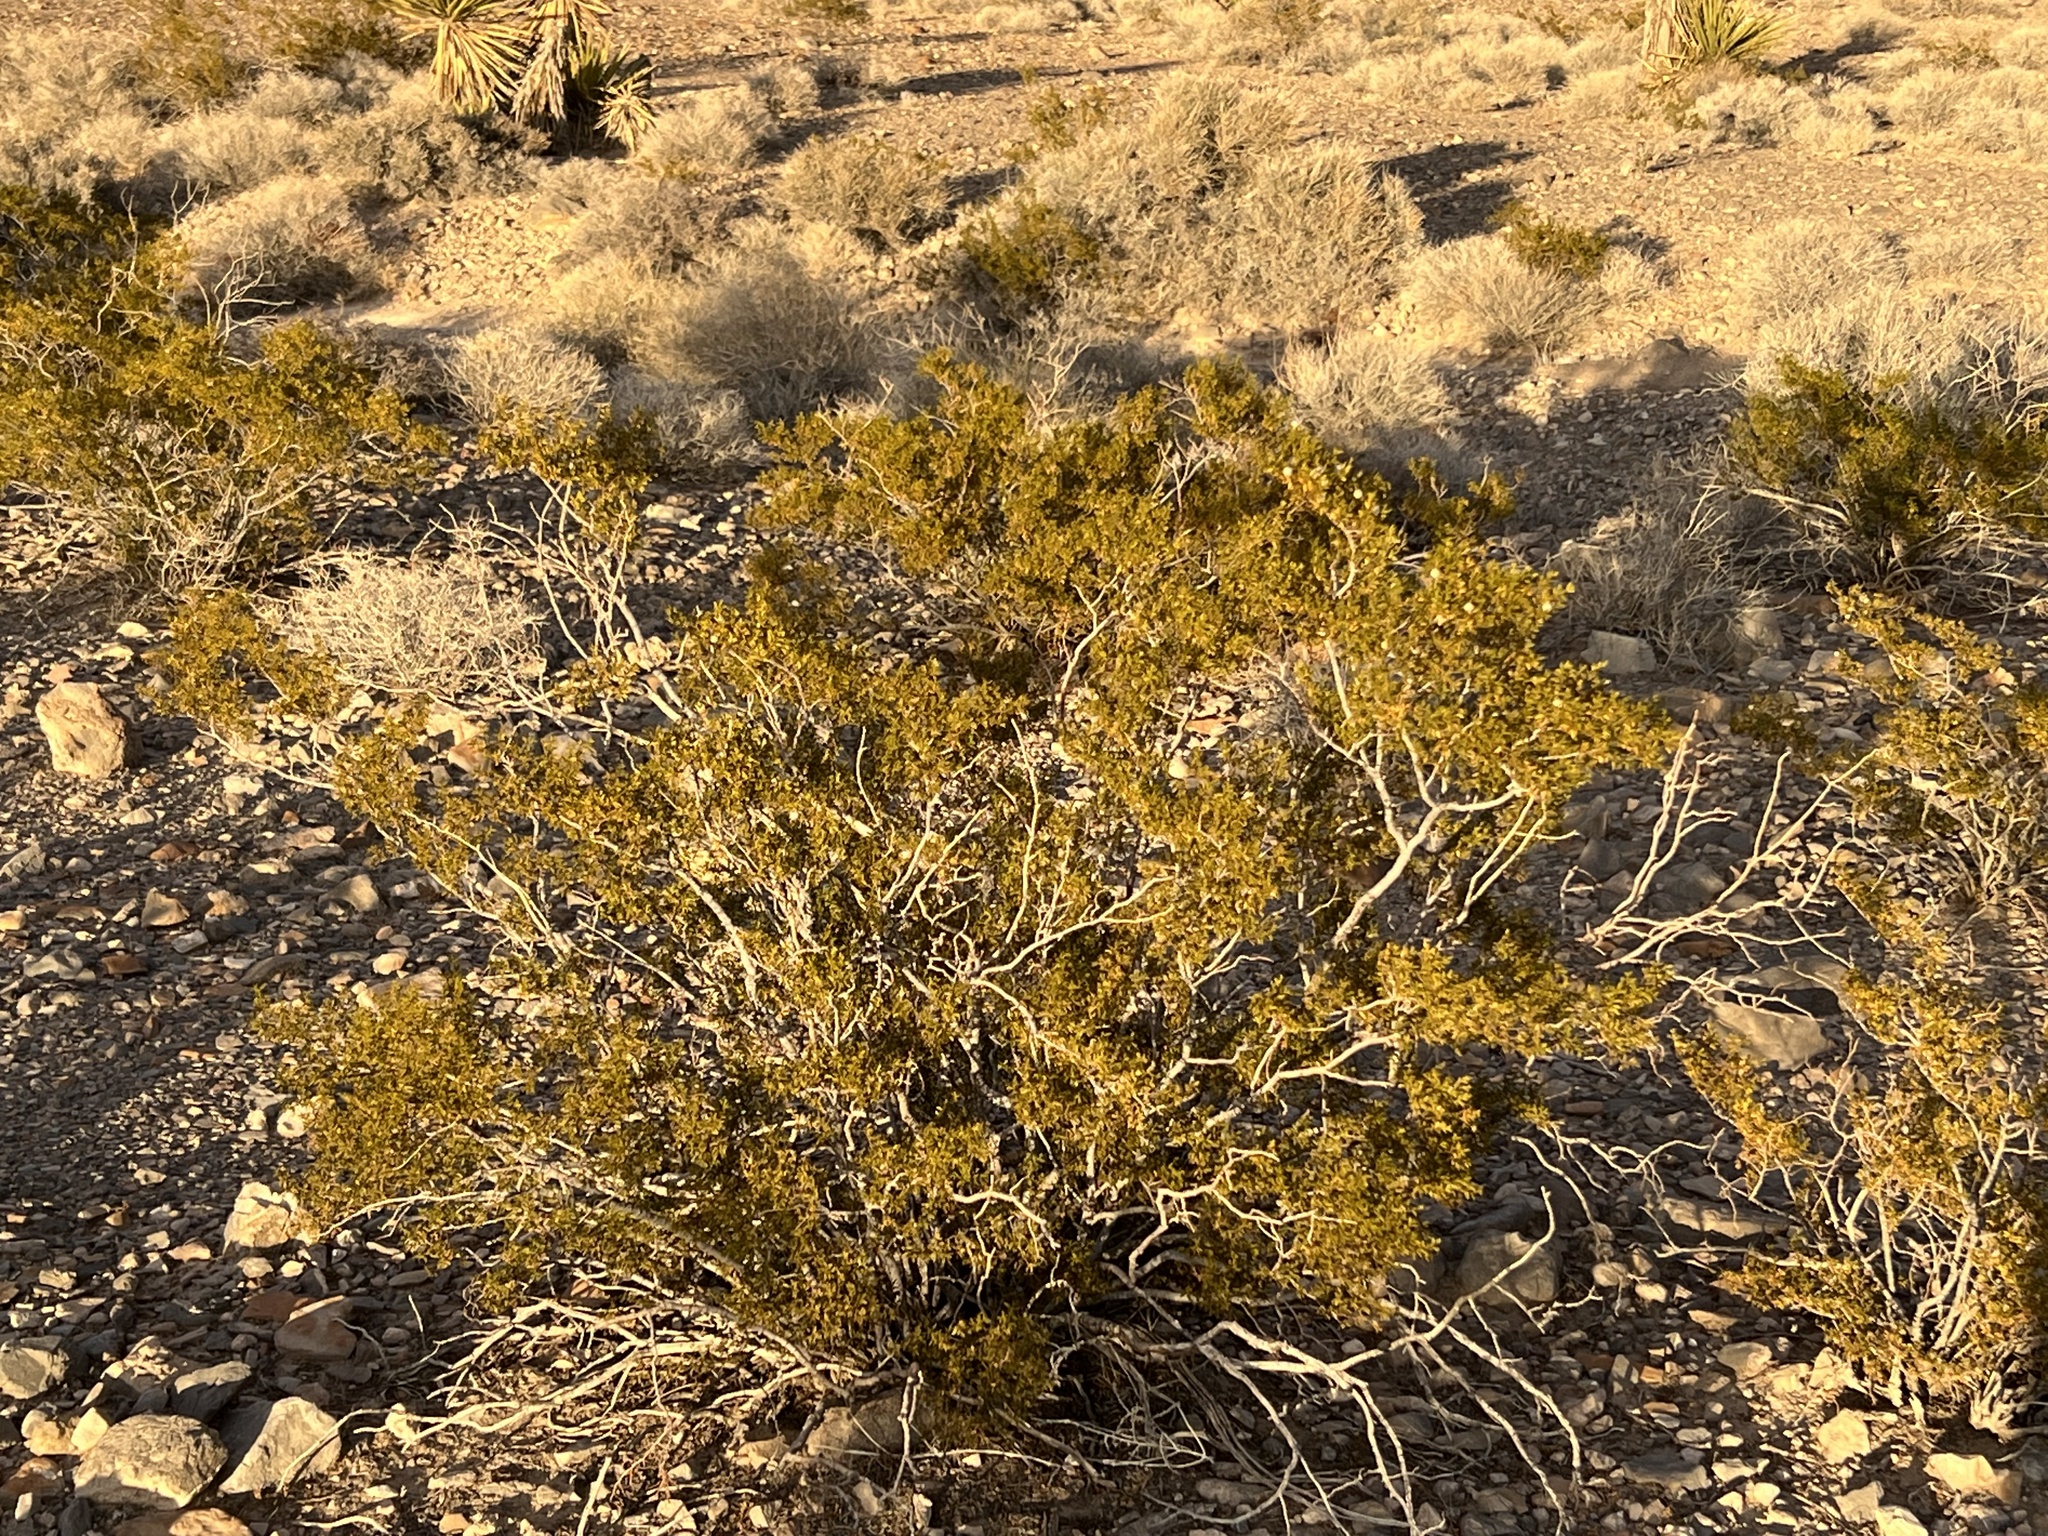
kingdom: Plantae
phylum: Tracheophyta
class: Magnoliopsida
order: Zygophyllales
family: Zygophyllaceae
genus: Larrea
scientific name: Larrea tridentata
